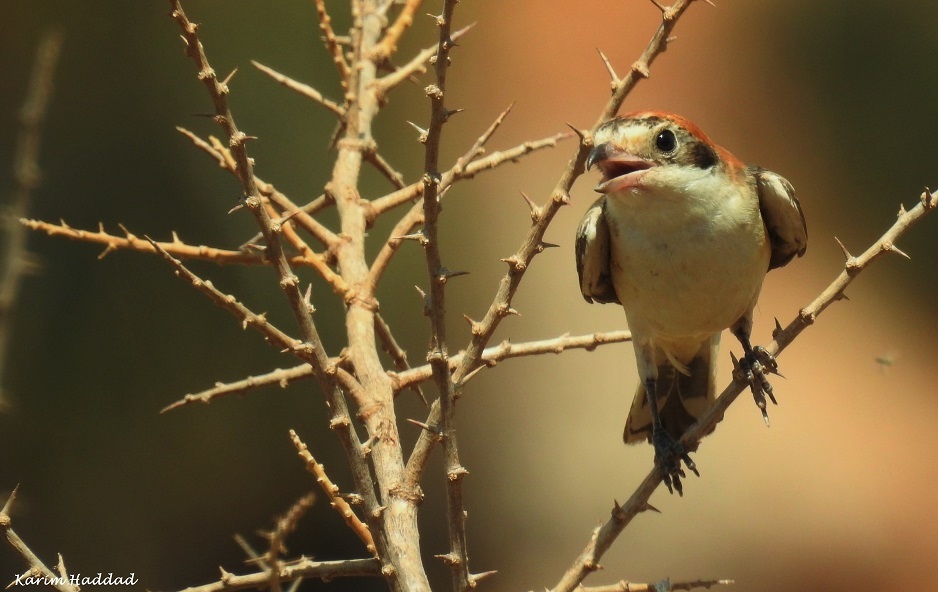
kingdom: Animalia
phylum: Chordata
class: Aves
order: Passeriformes
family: Laniidae
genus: Lanius
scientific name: Lanius senator
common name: Woodchat shrike
